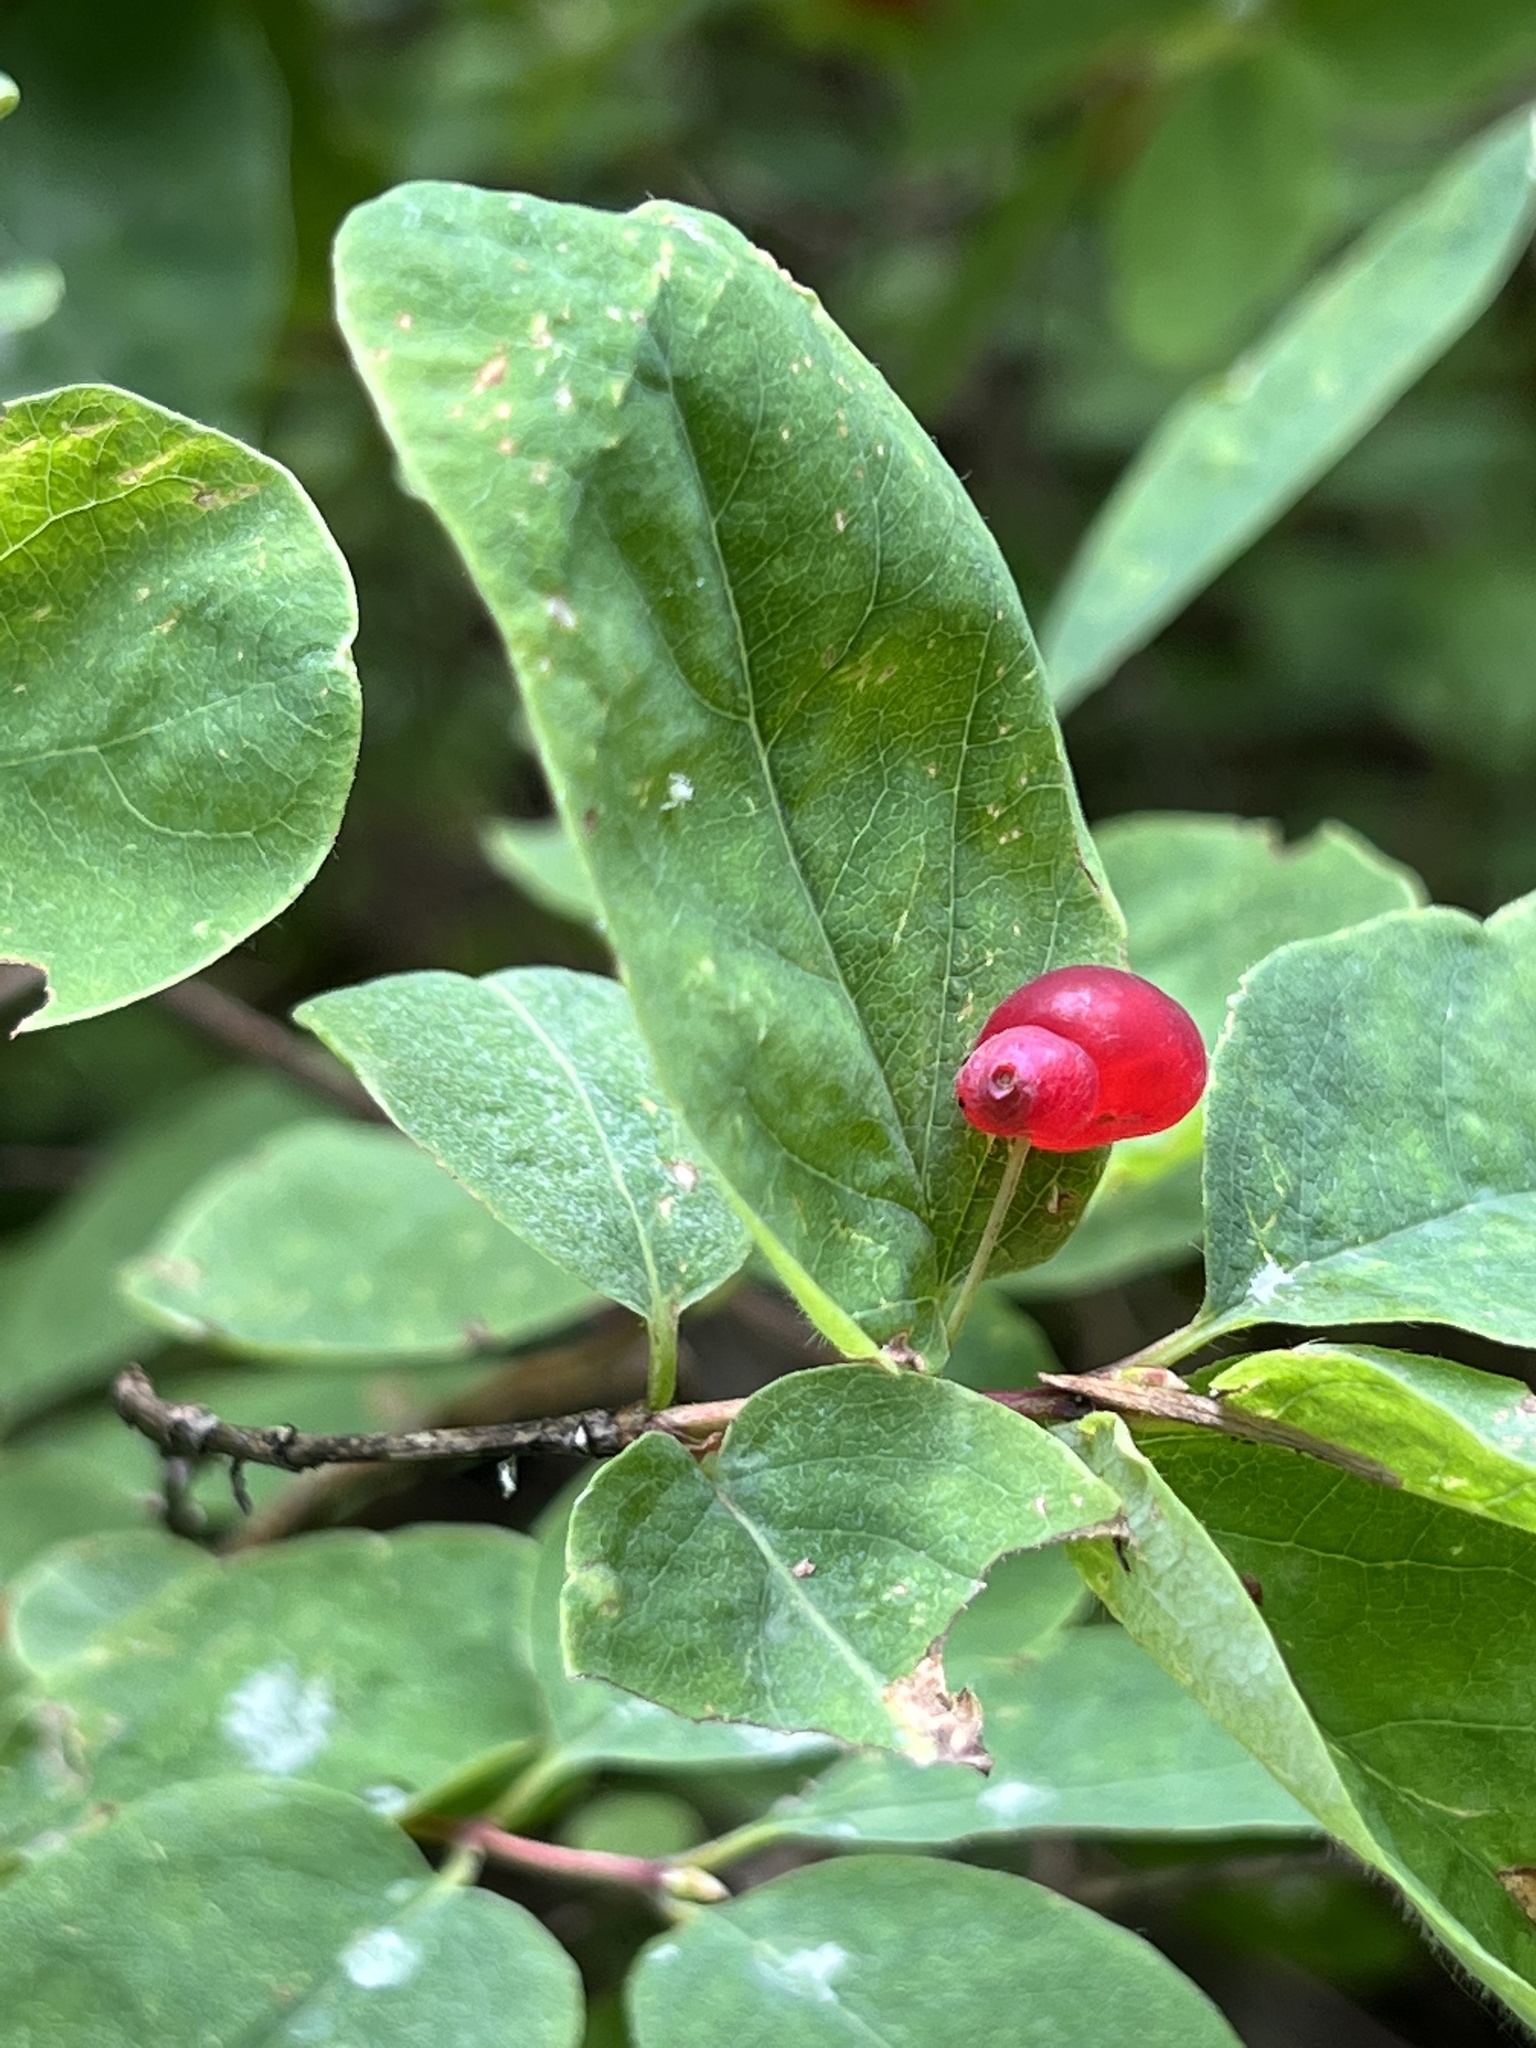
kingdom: Plantae
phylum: Tracheophyta
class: Magnoliopsida
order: Dipsacales
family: Caprifoliaceae
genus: Lonicera
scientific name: Lonicera utahensis
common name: Utah honeysuckle
